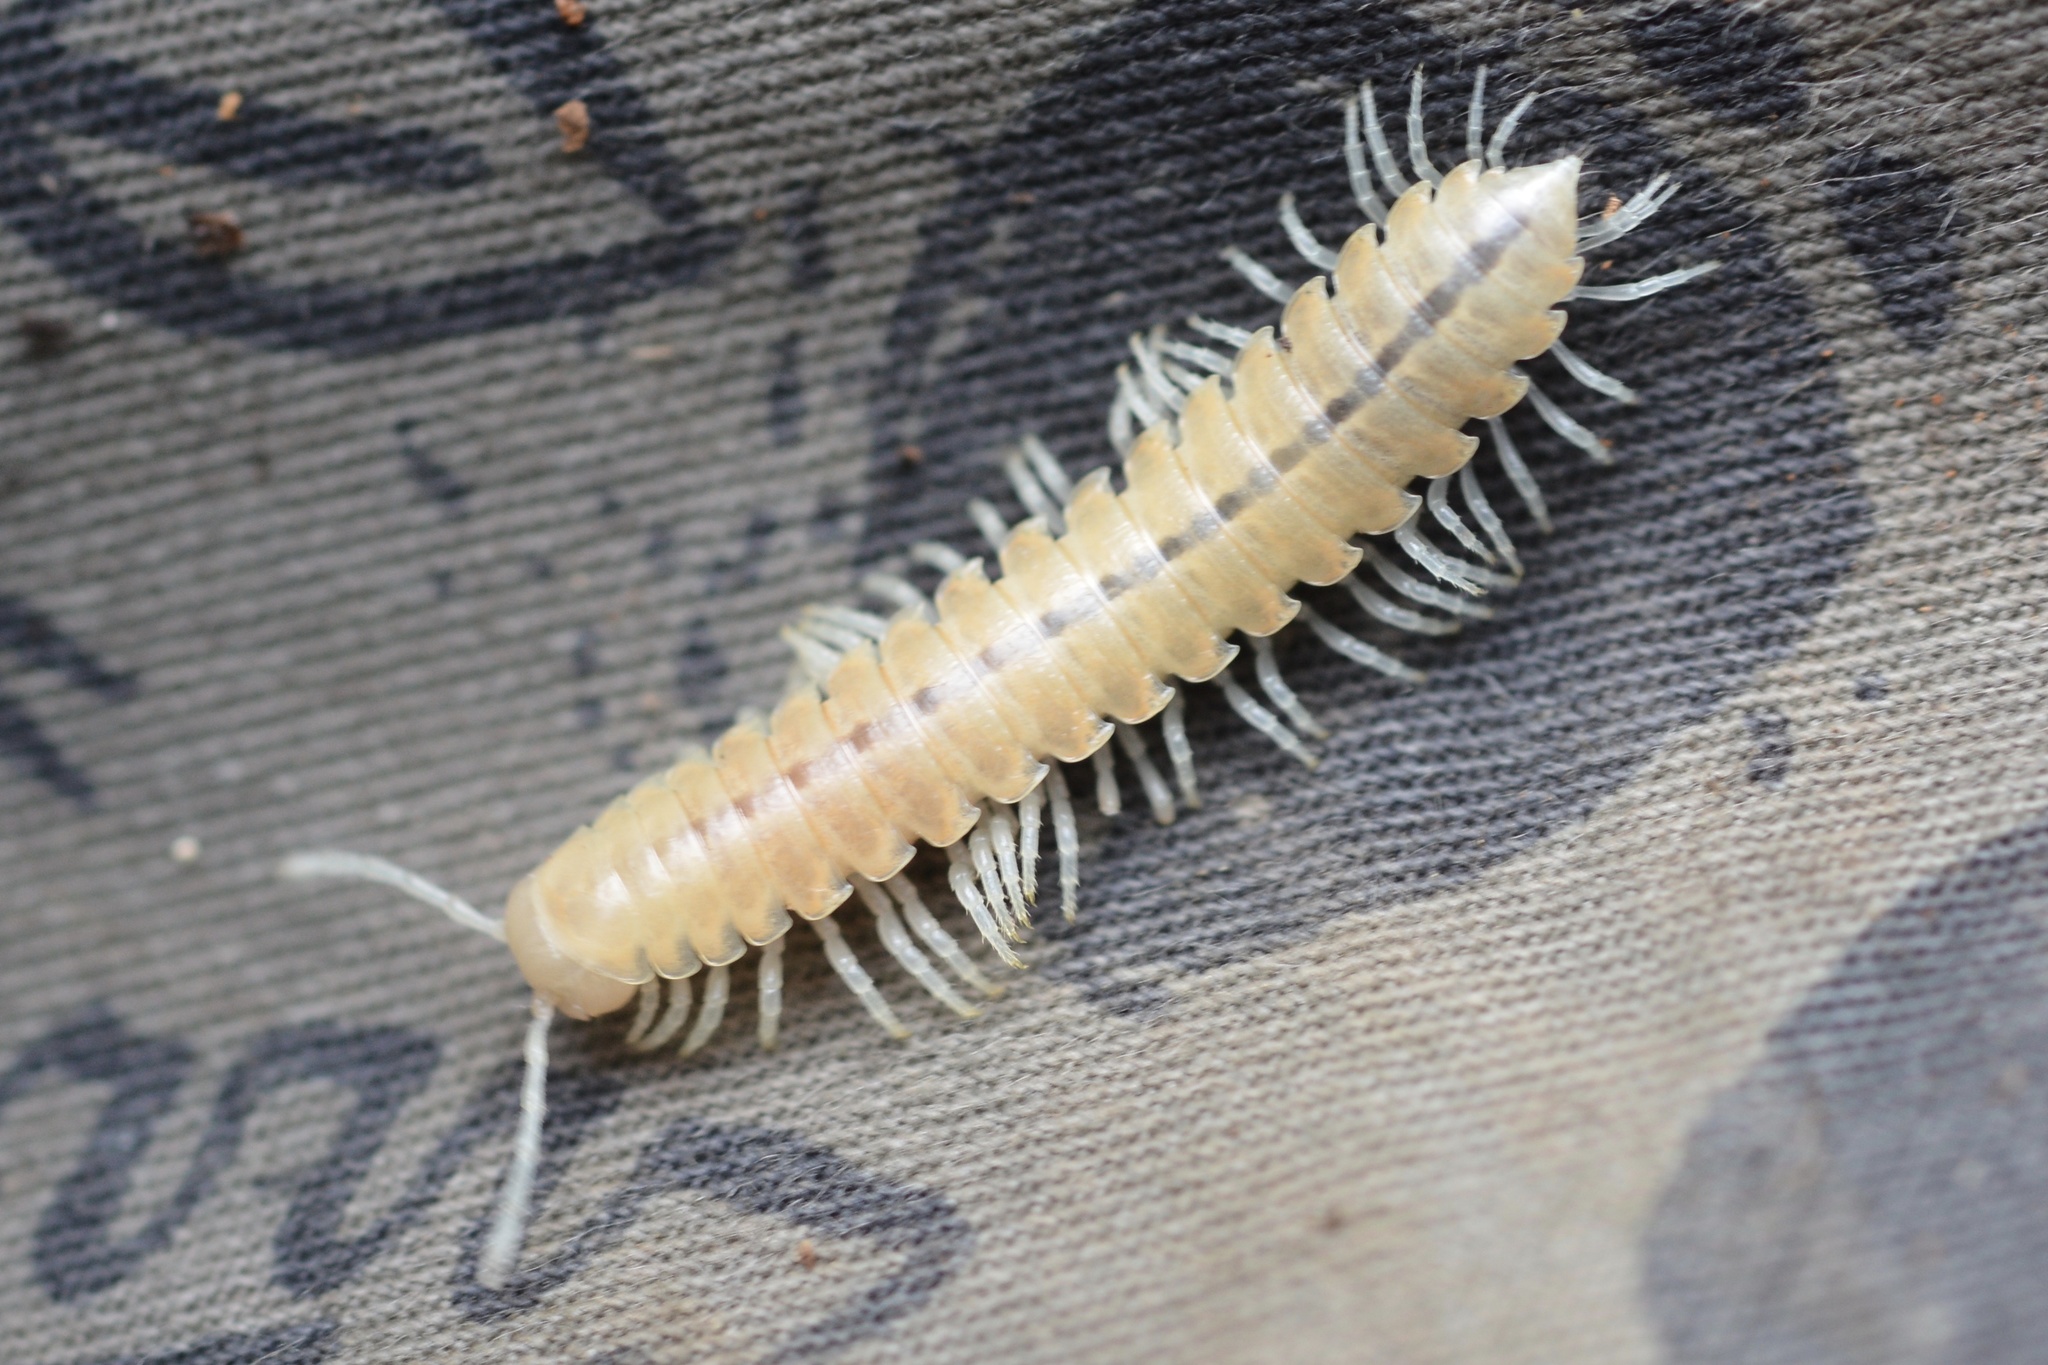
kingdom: Animalia
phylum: Arthropoda
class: Diplopoda
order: Polydesmida
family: Xystodesmidae
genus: Xystocheir
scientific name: Xystocheir dissecta
